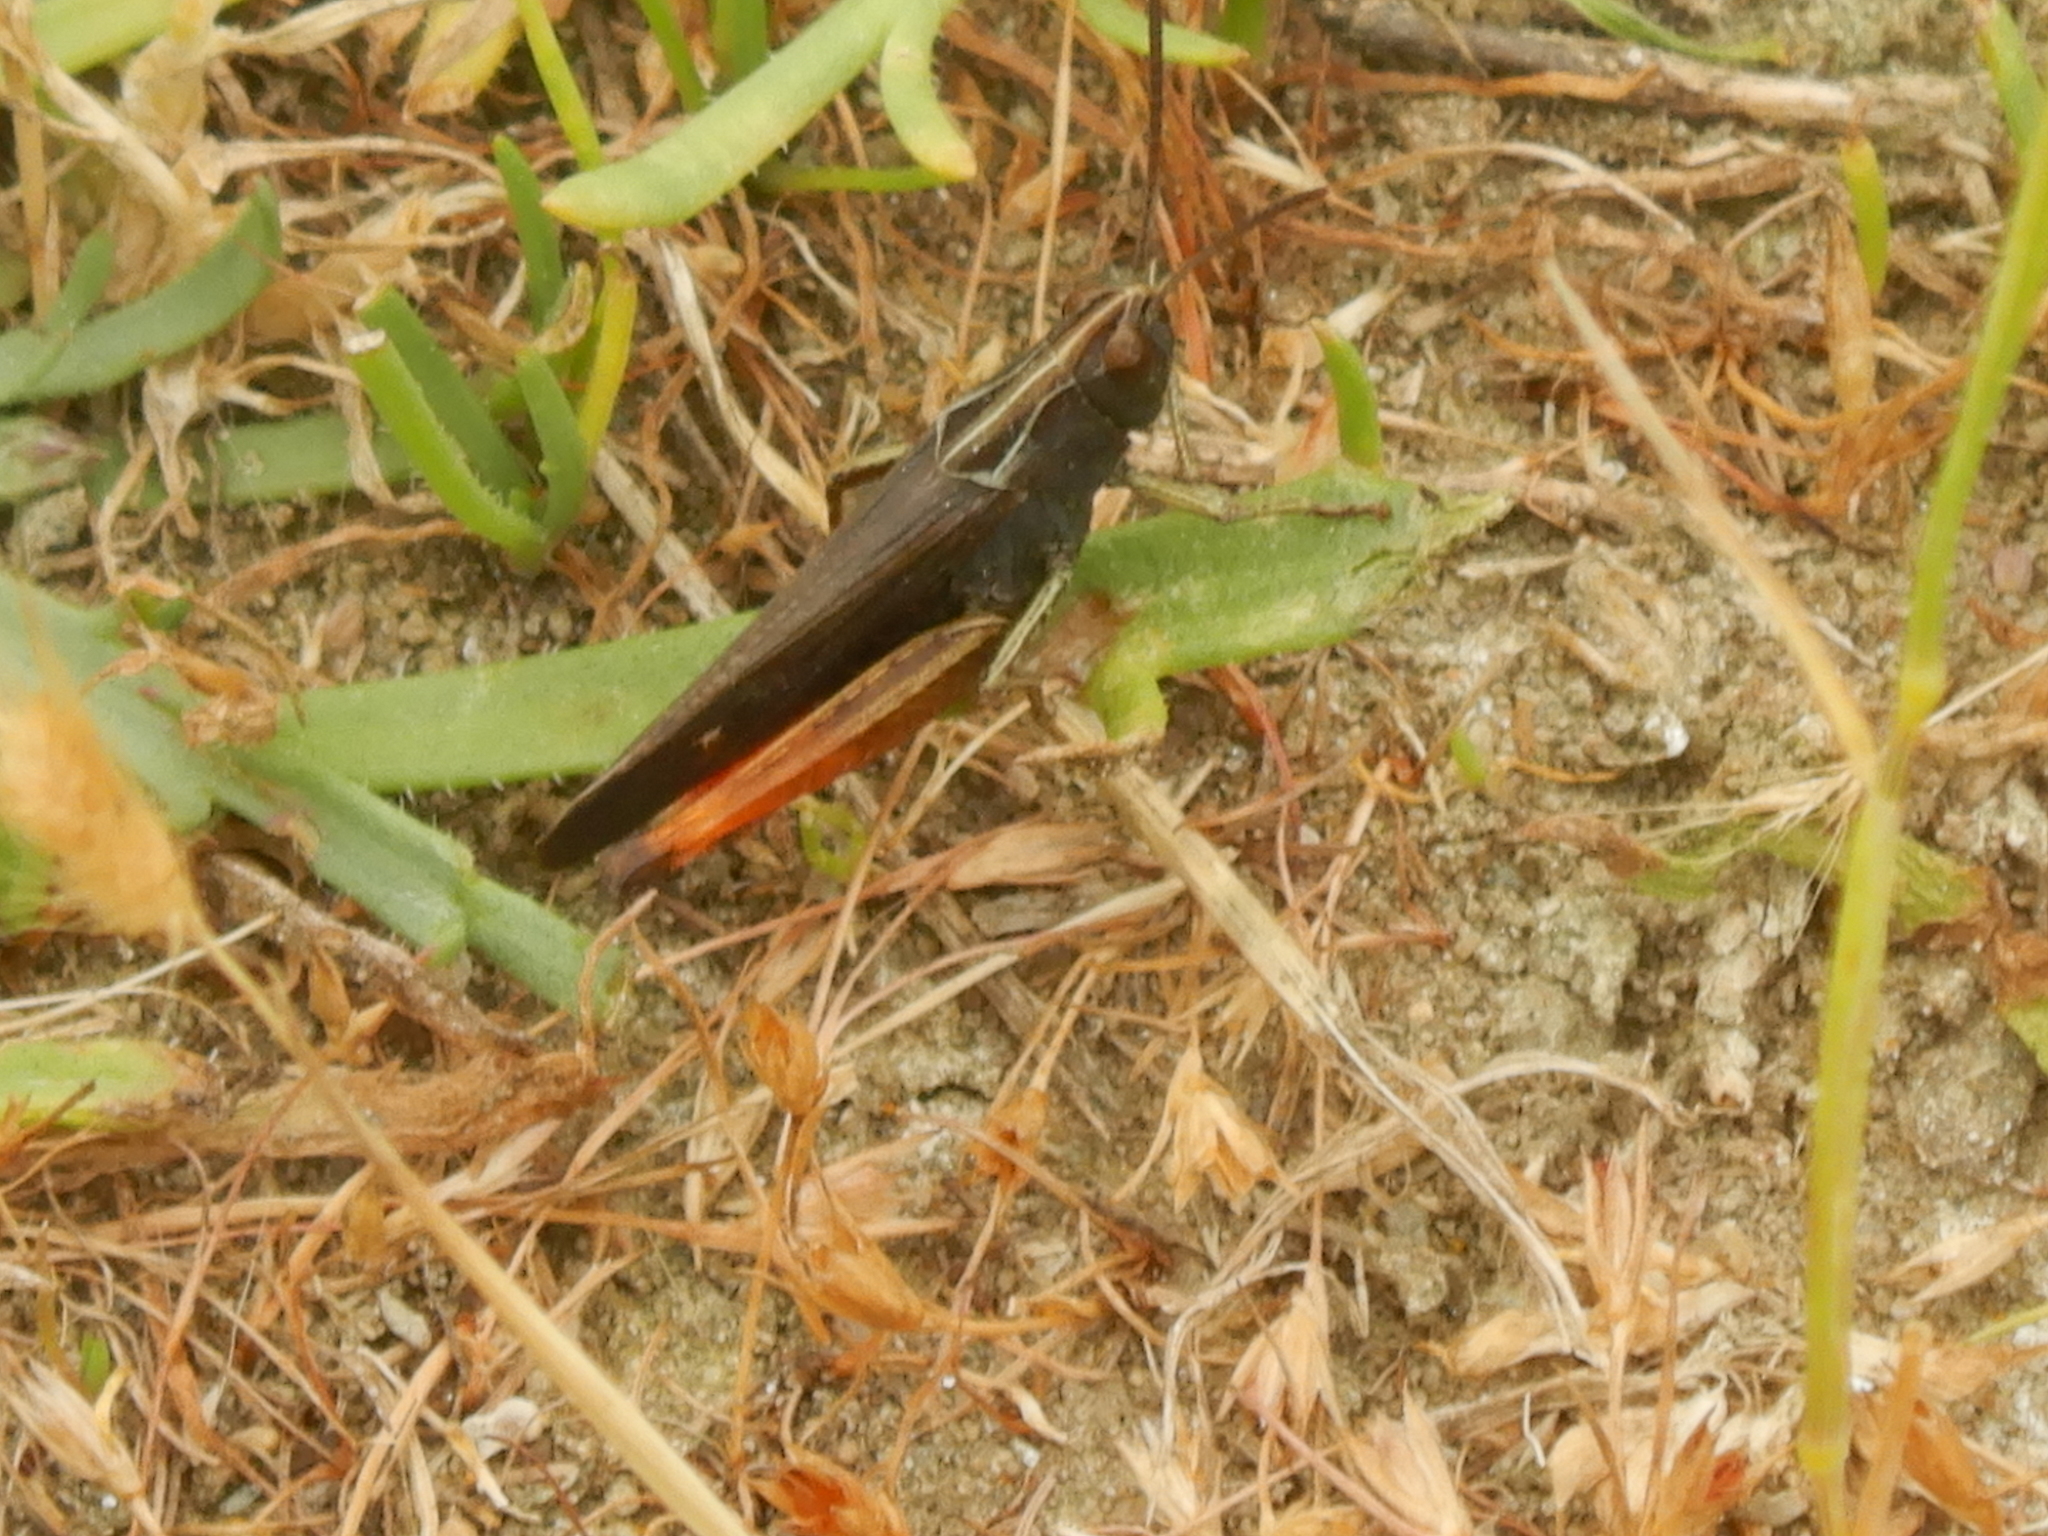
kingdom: Animalia
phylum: Arthropoda
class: Insecta
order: Orthoptera
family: Acrididae
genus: Omocestus
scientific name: Omocestus rufipes
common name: Woodland grasshopper
